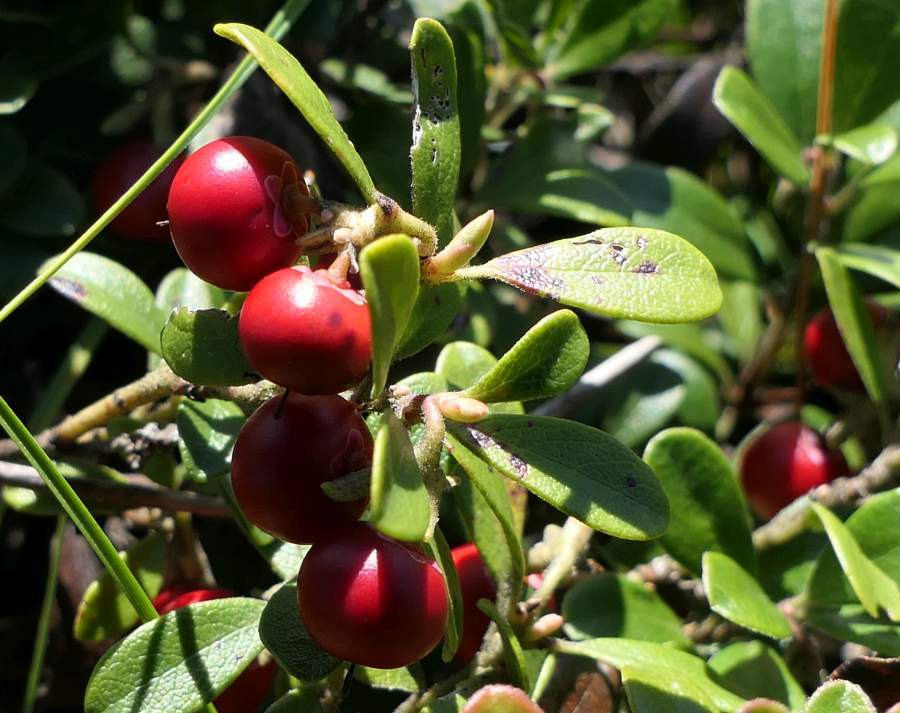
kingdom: Plantae
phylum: Tracheophyta
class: Magnoliopsida
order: Ericales
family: Ericaceae
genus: Arctostaphylos
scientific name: Arctostaphylos uva-ursi
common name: Bearberry
